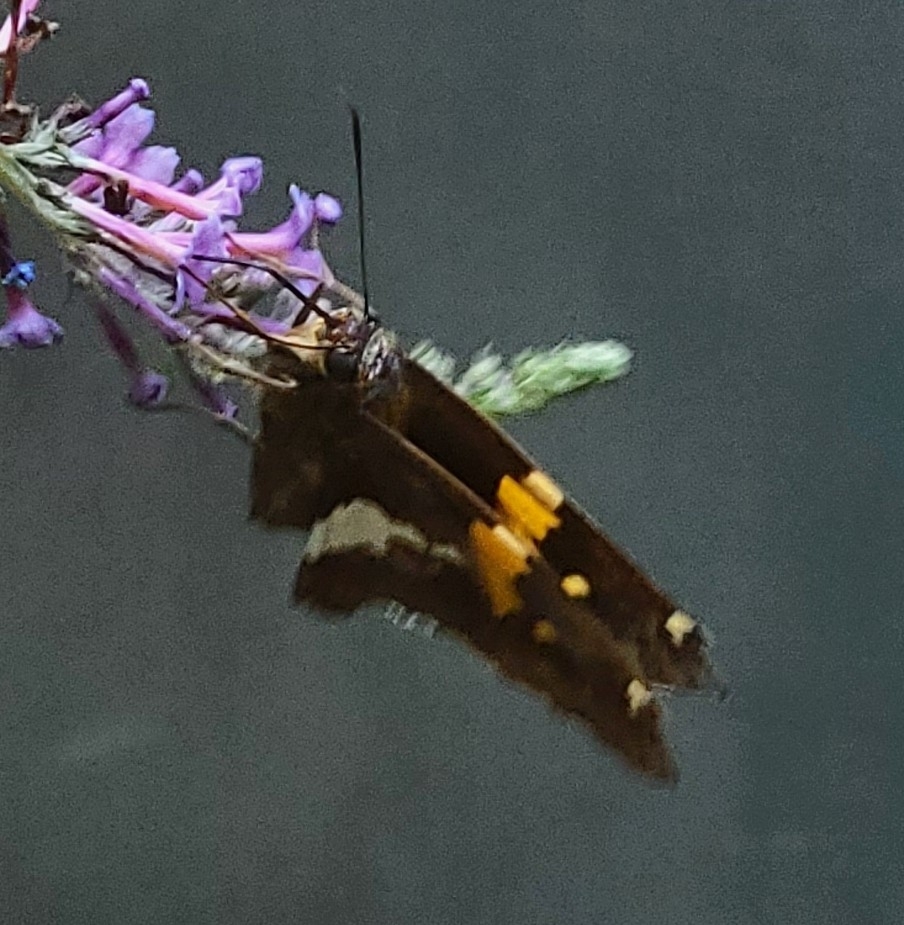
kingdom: Animalia
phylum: Arthropoda
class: Insecta
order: Lepidoptera
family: Hesperiidae
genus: Epargyreus
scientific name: Epargyreus clarus
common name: Silver-spotted skipper
